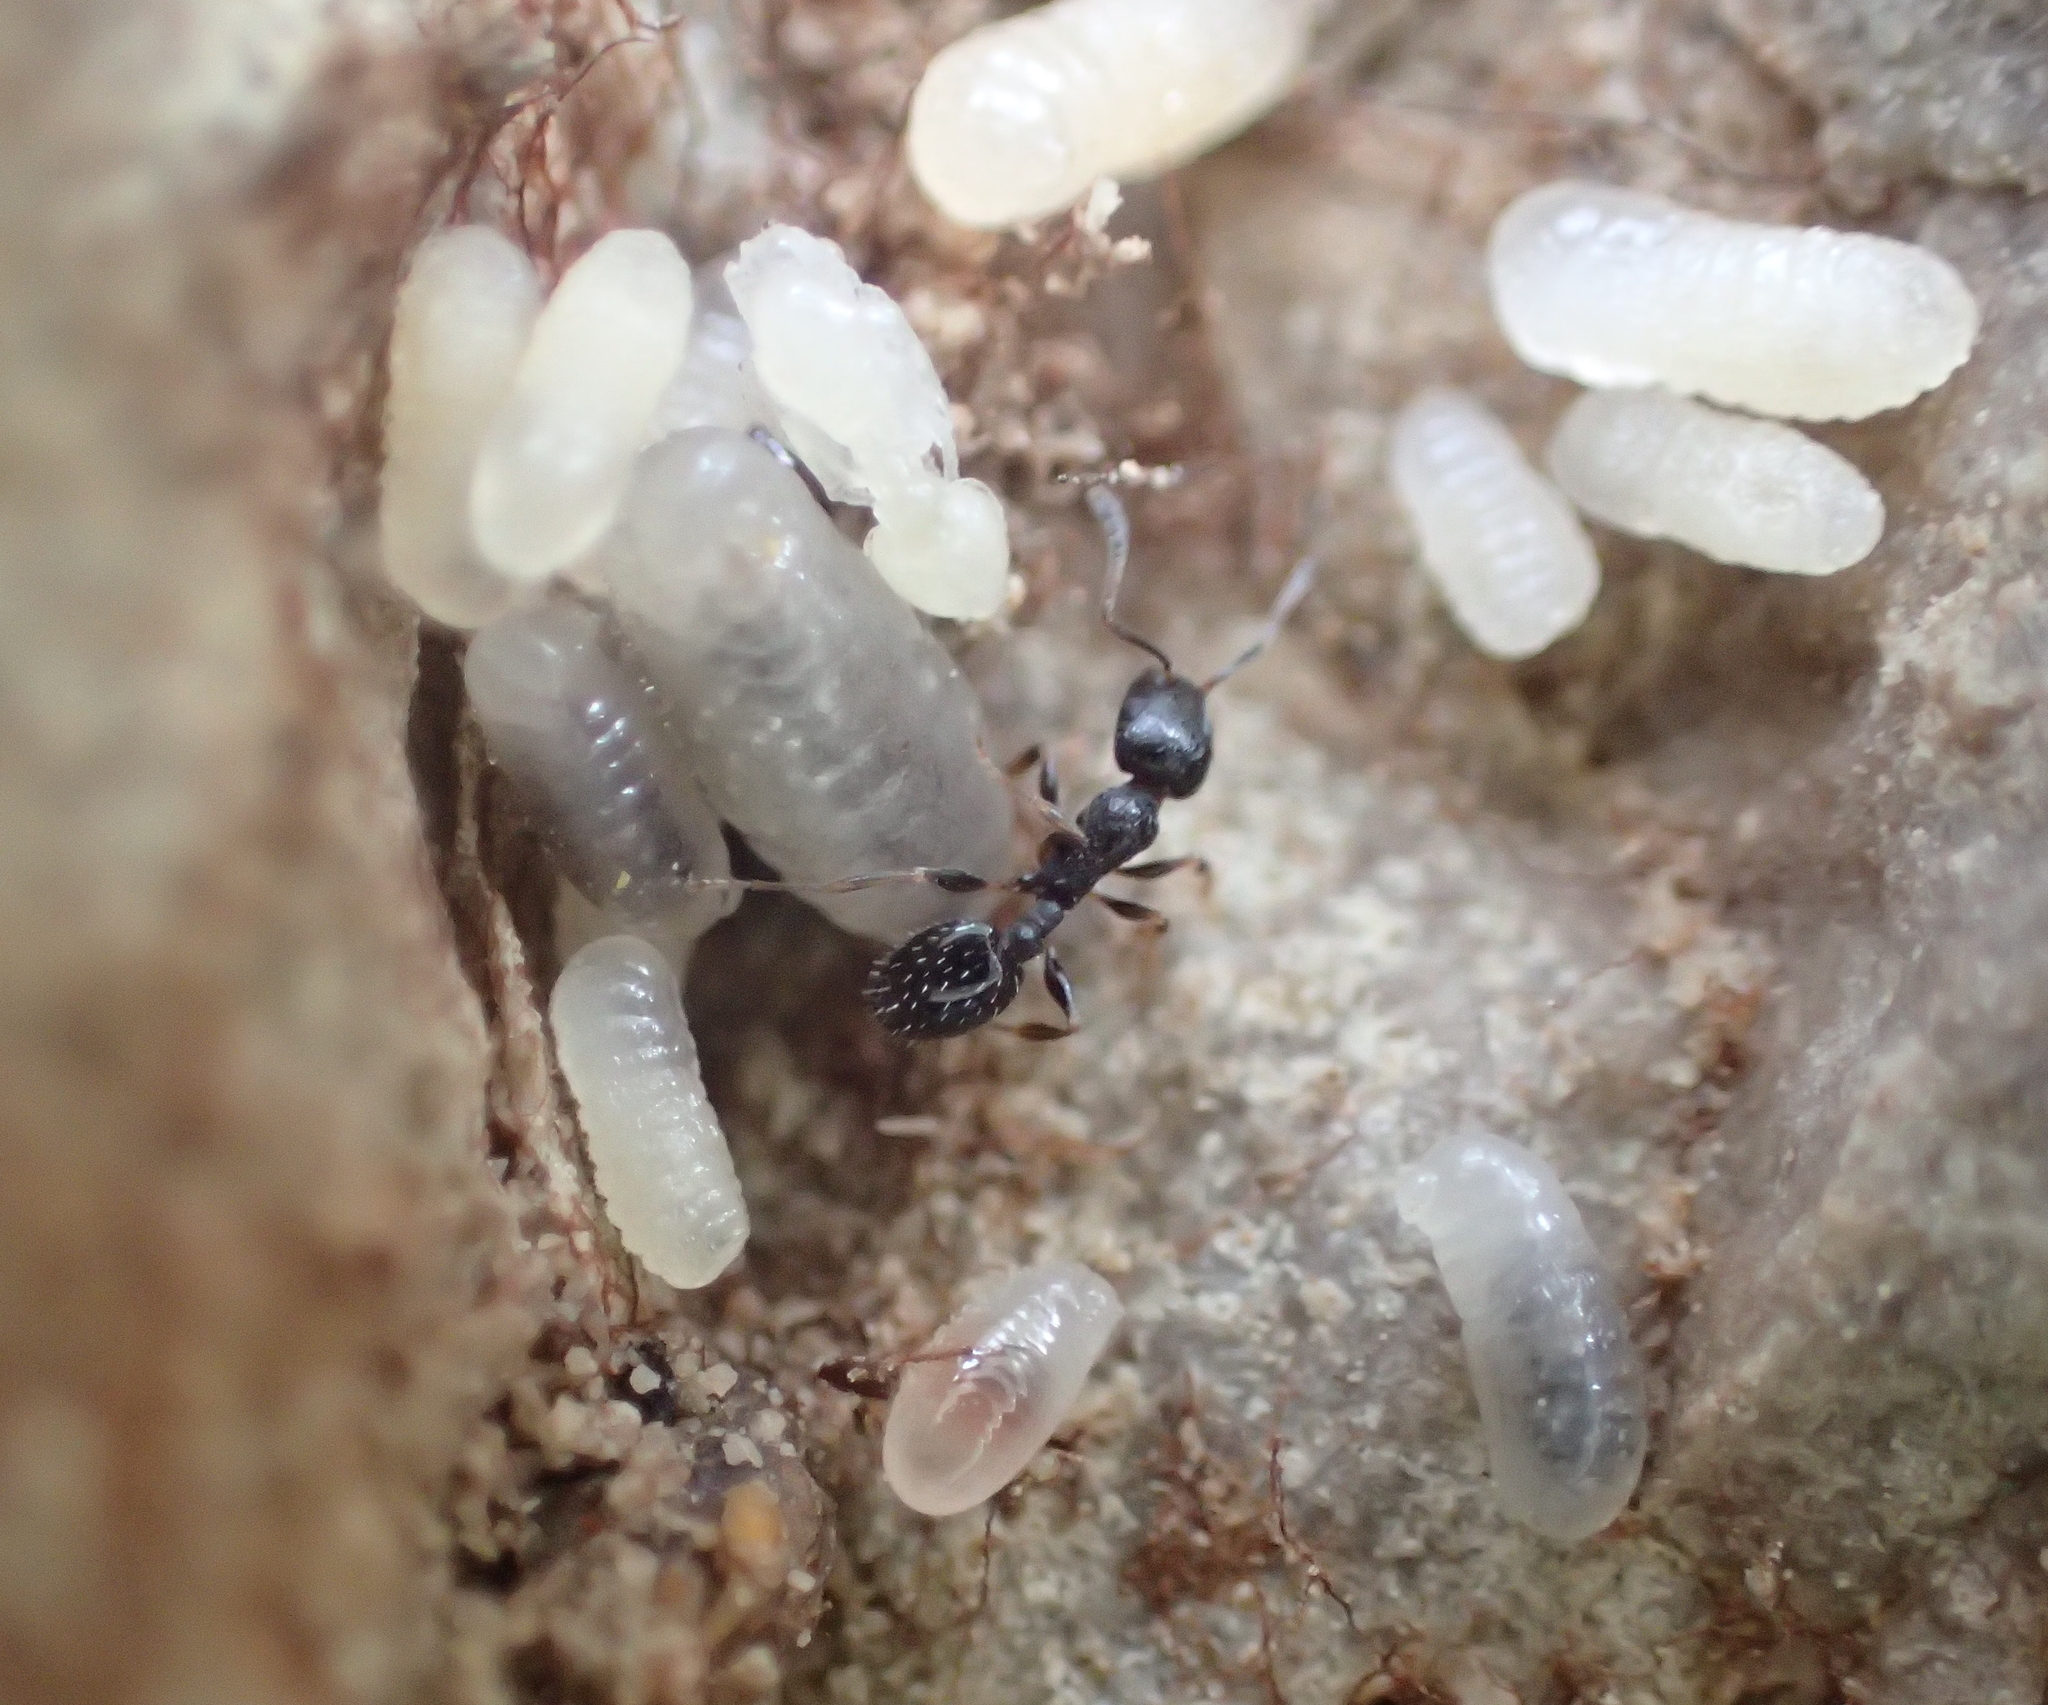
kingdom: Animalia
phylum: Arthropoda
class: Insecta
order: Hymenoptera
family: Formicidae
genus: Temnothorax
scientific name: Temnothorax niger
